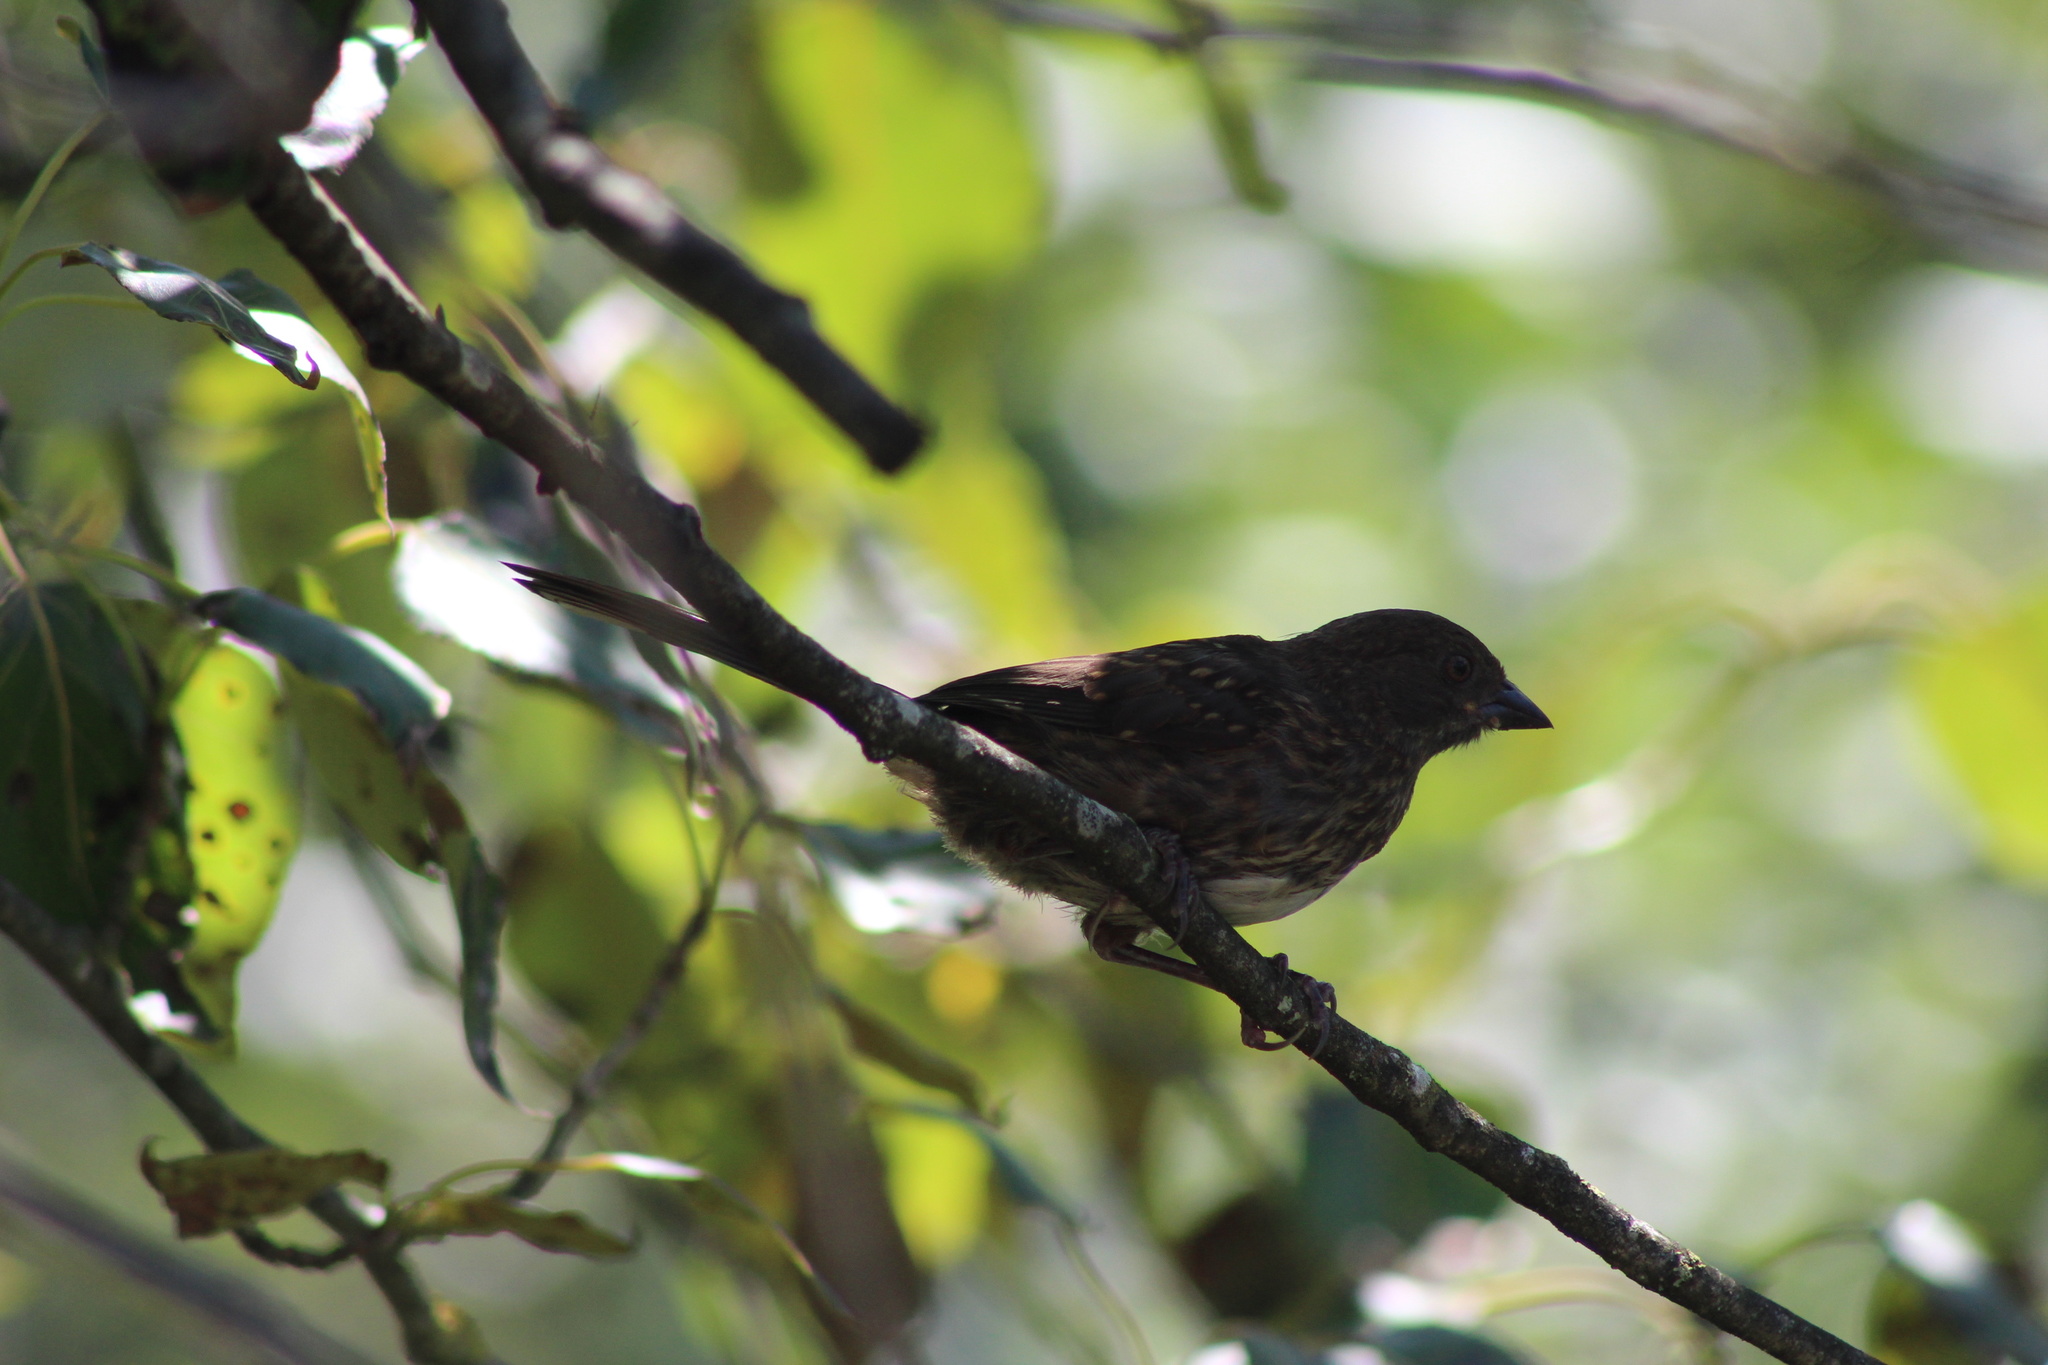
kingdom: Animalia
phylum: Chordata
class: Aves
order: Passeriformes
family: Passerellidae
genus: Pipilo
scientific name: Pipilo maculatus
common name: Spotted towhee
